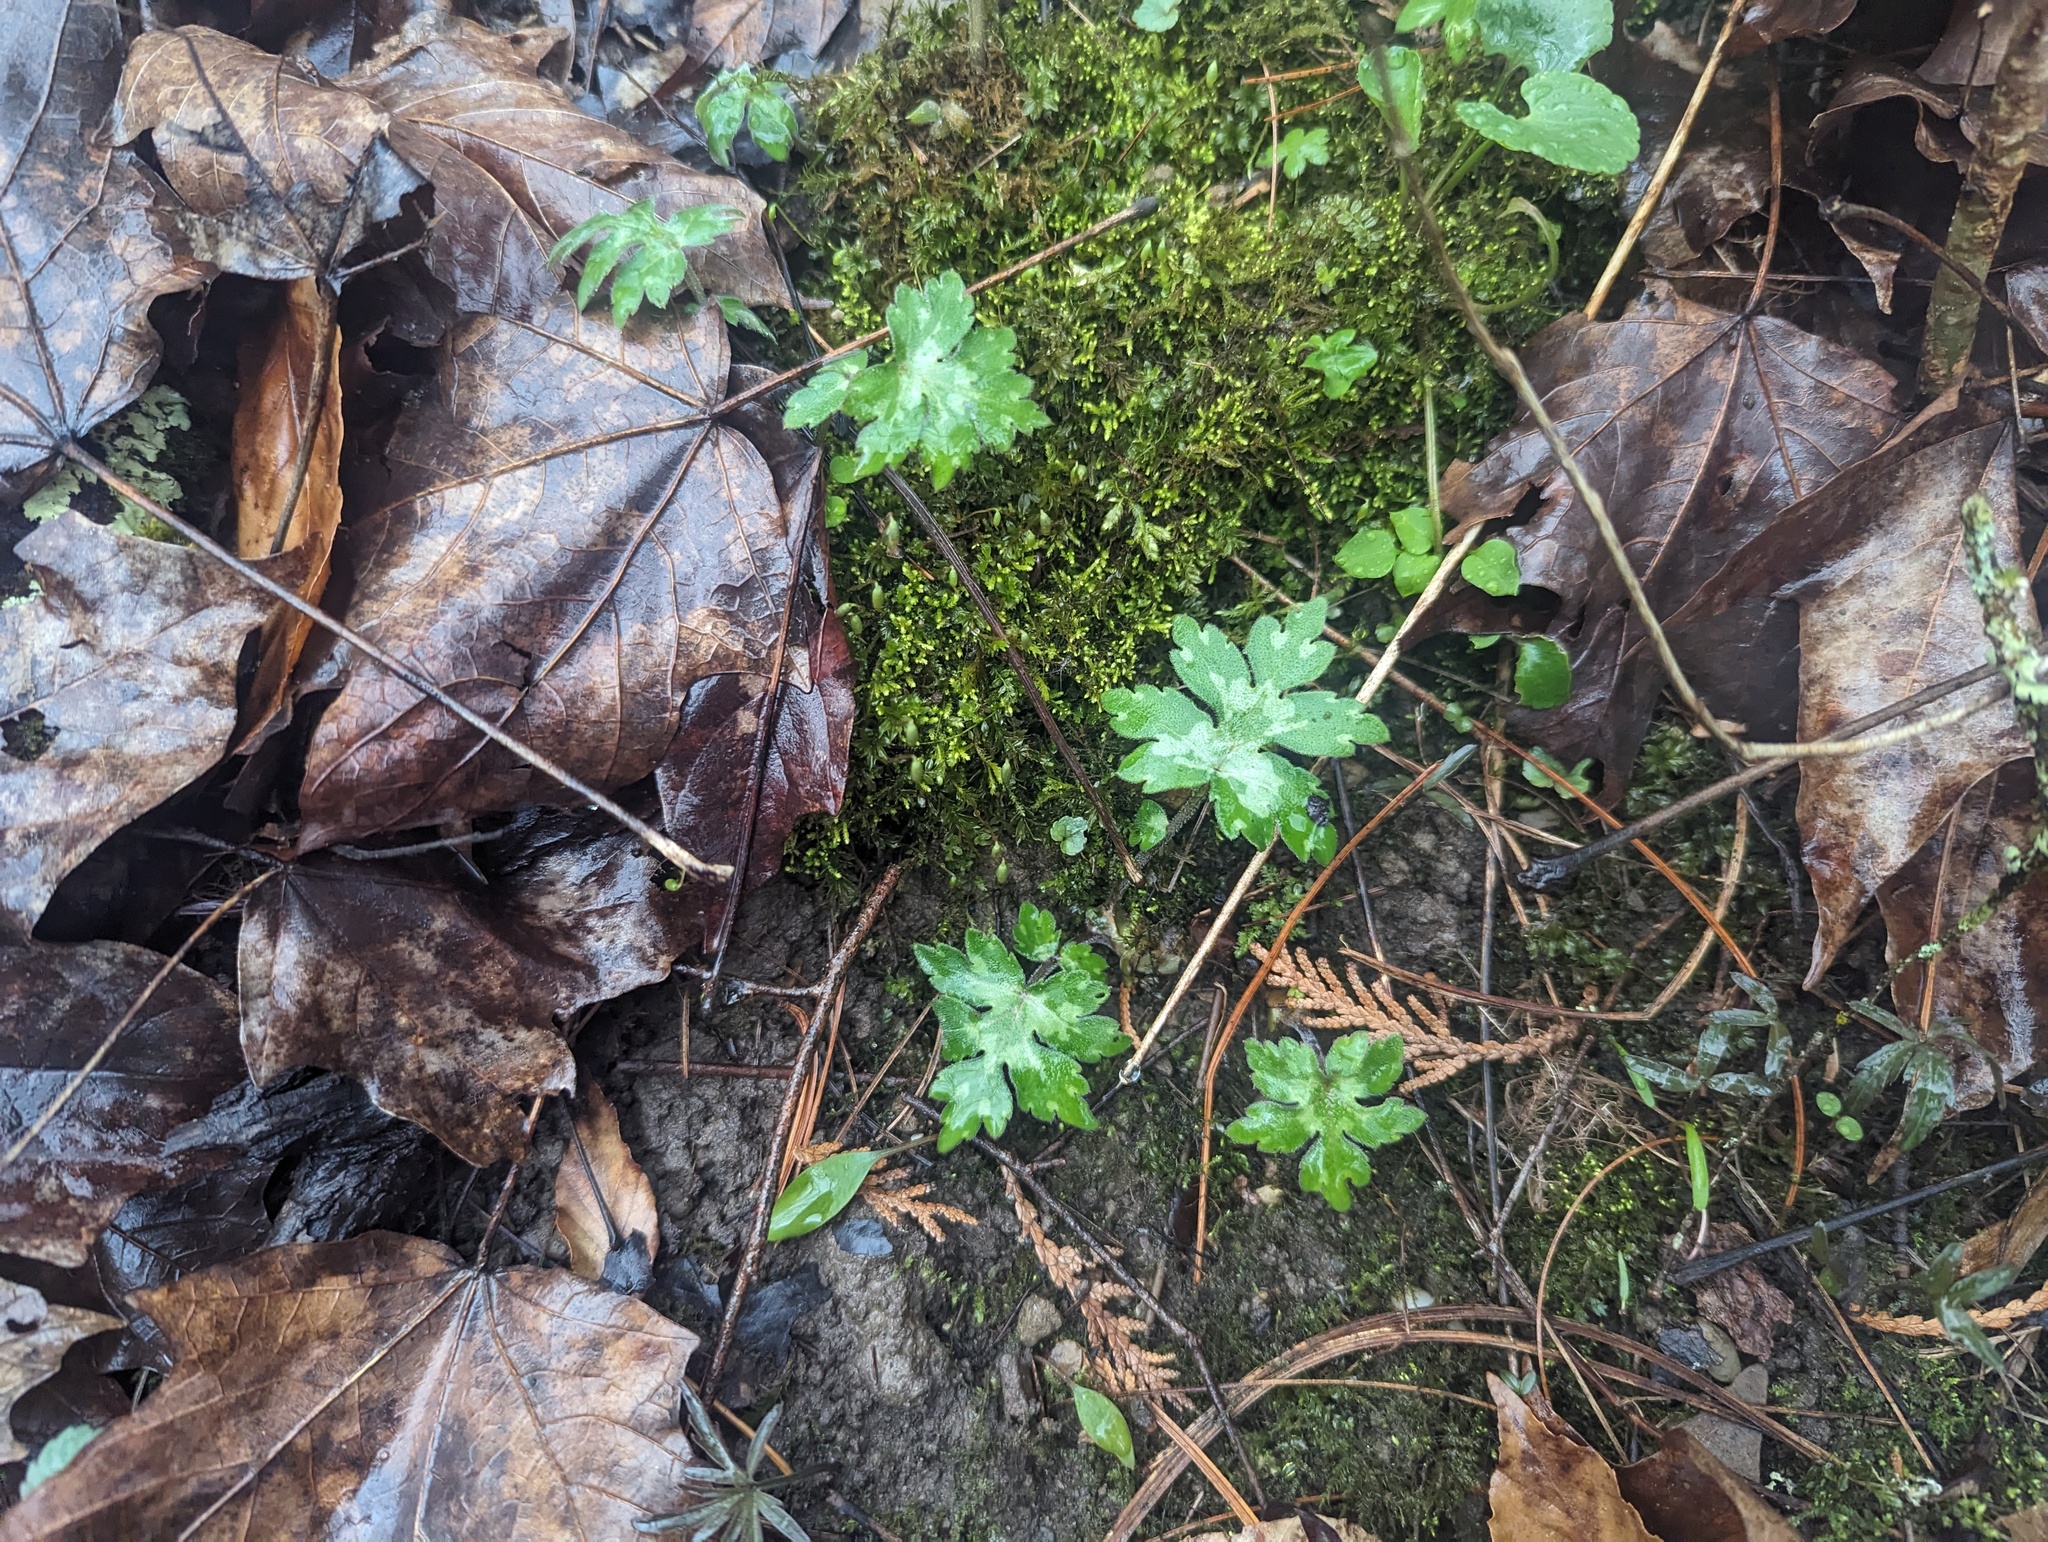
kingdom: Plantae
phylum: Tracheophyta
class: Magnoliopsida
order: Boraginales
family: Hydrophyllaceae
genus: Hydrophyllum
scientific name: Hydrophyllum canadense
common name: Canada waterleaf
